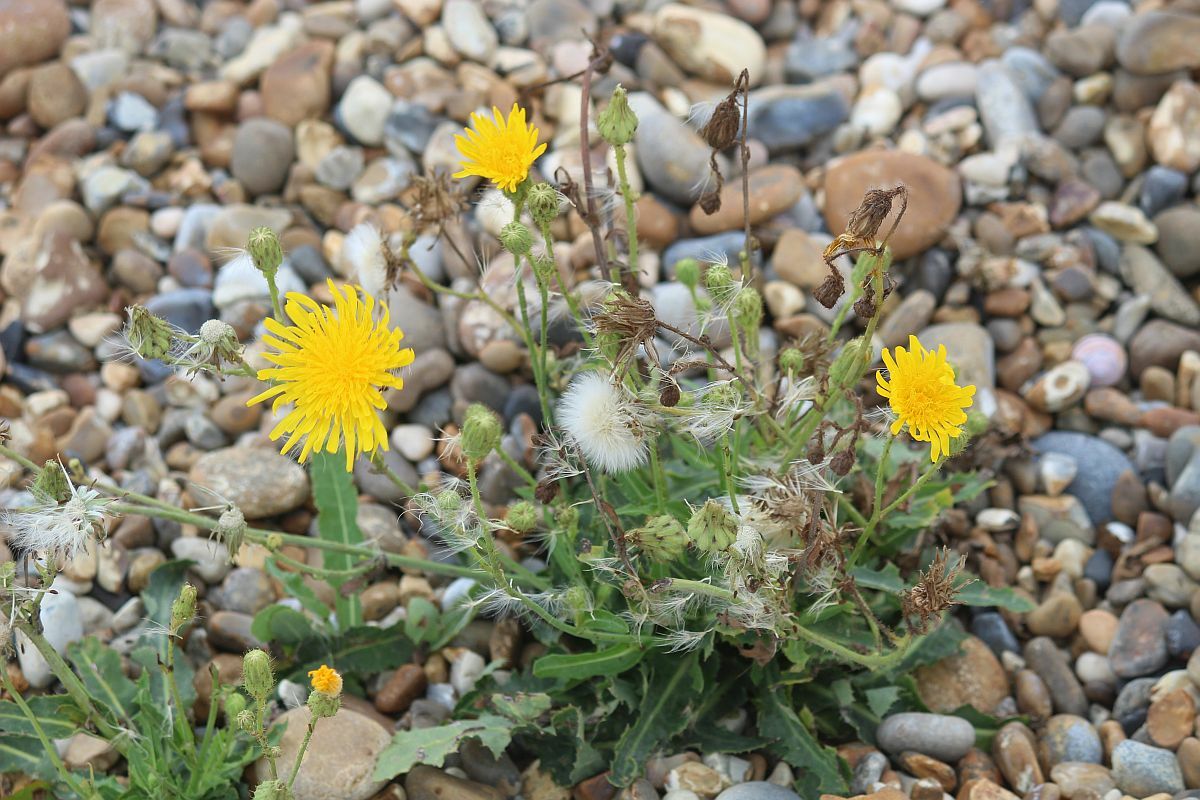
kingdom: Plantae
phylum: Tracheophyta
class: Magnoliopsida
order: Asterales
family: Asteraceae
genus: Sonchus
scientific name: Sonchus arvensis
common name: Perennial sow-thistle
